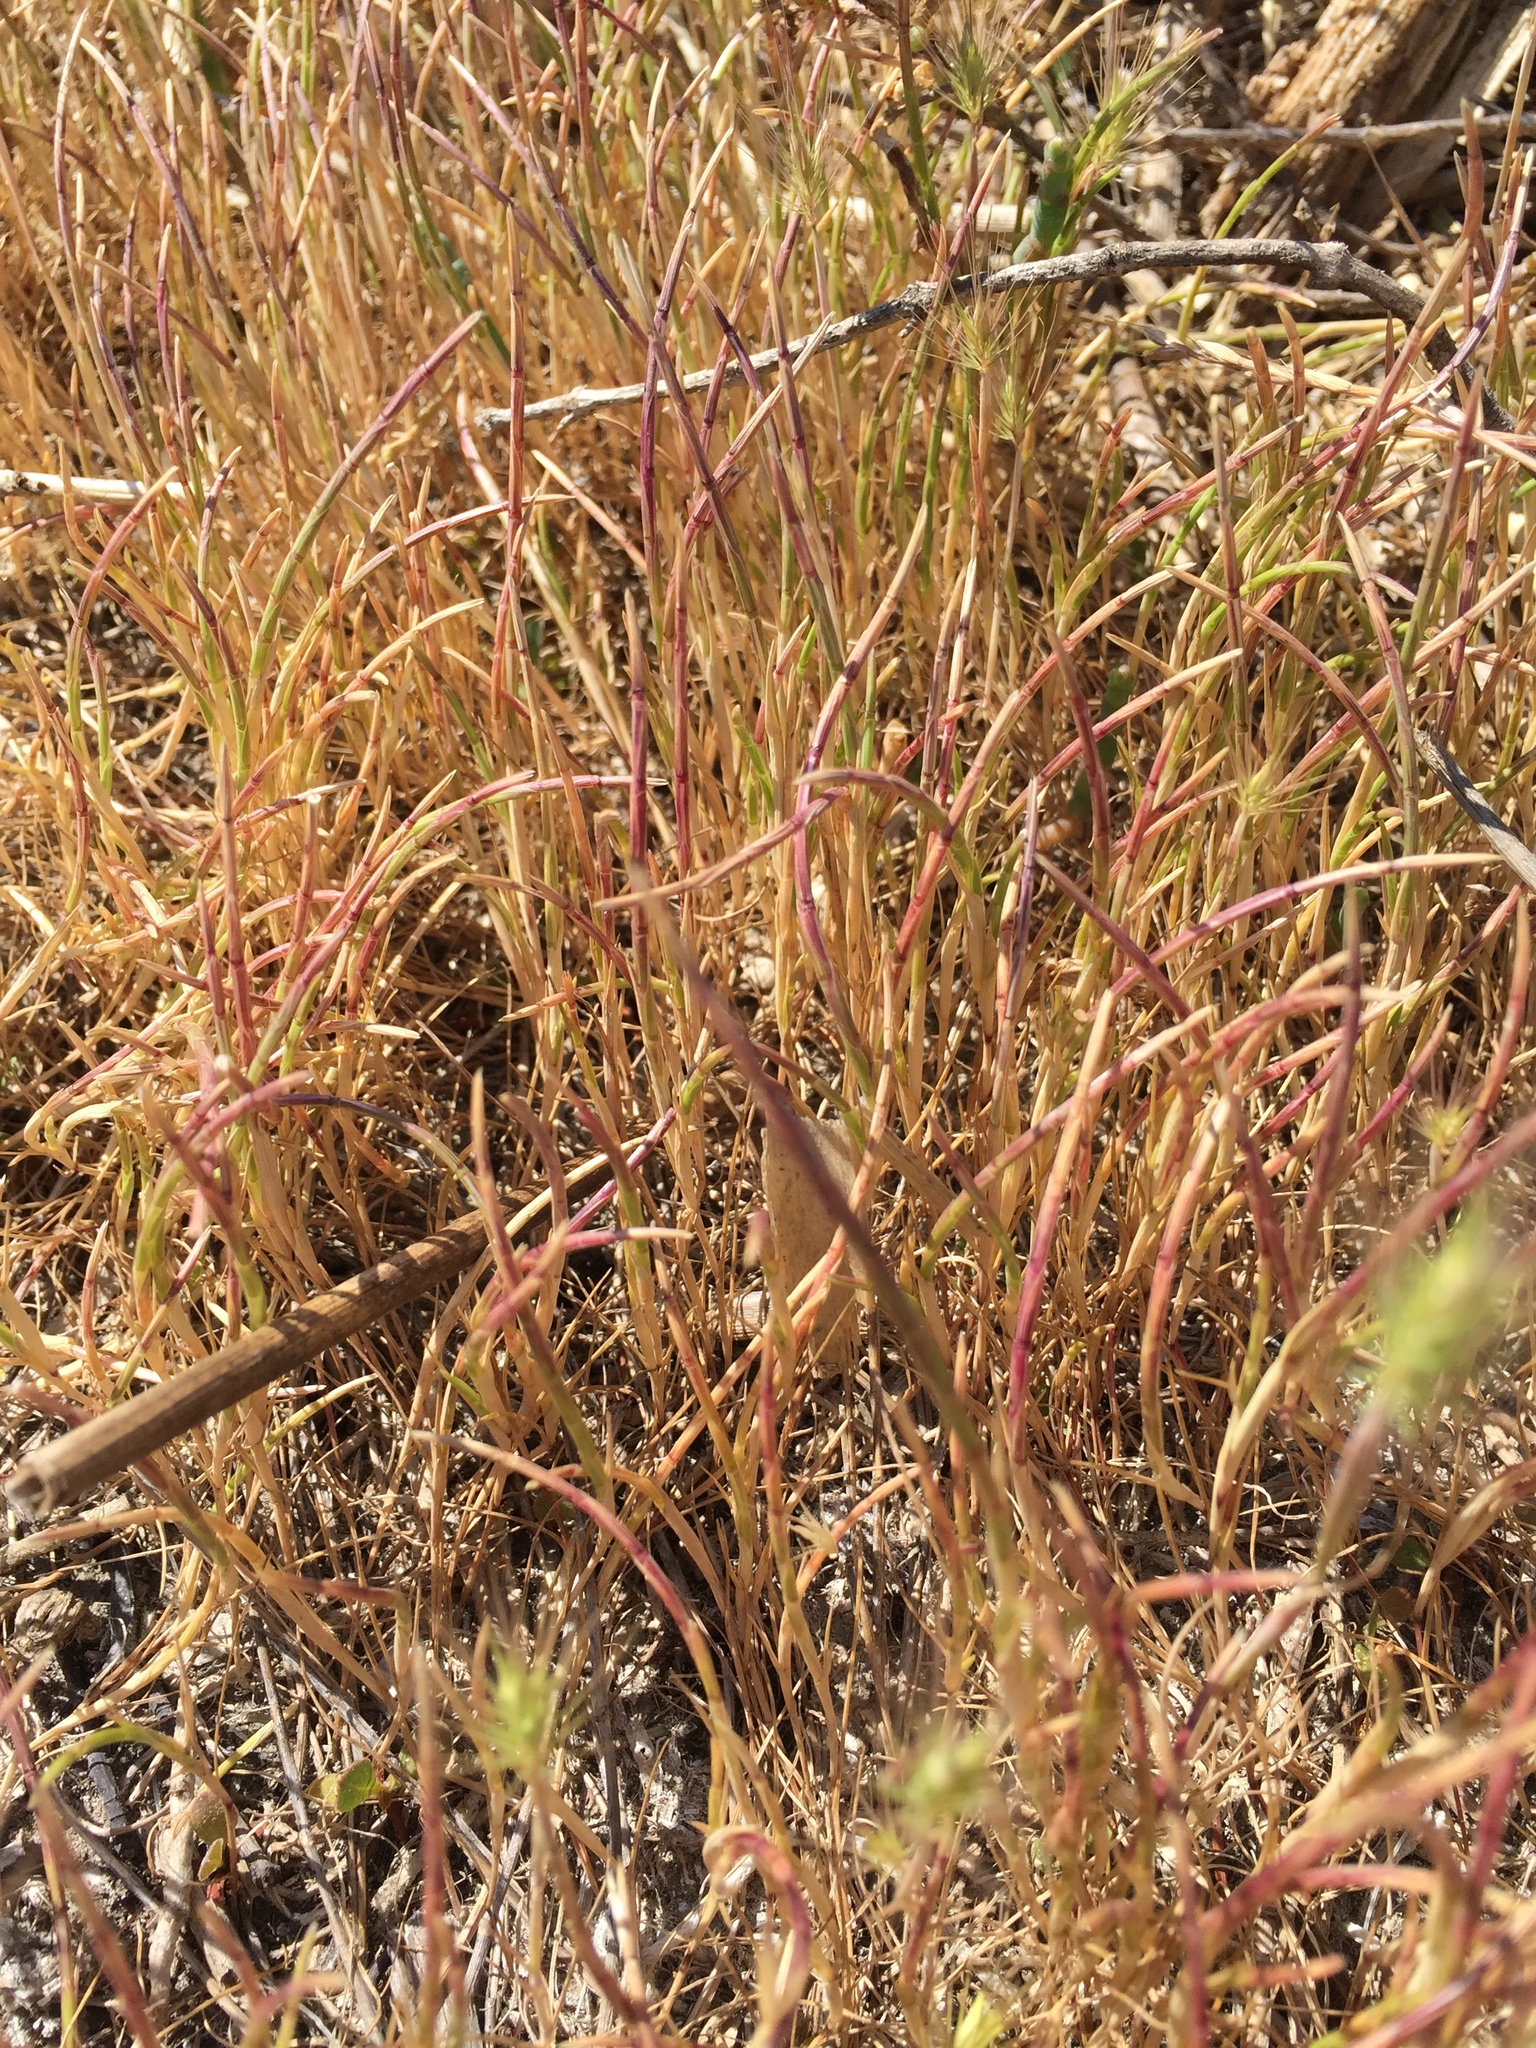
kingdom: Plantae
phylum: Tracheophyta
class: Liliopsida
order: Poales
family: Poaceae
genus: Parapholis
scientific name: Parapholis incurva
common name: Curved sicklegrass
